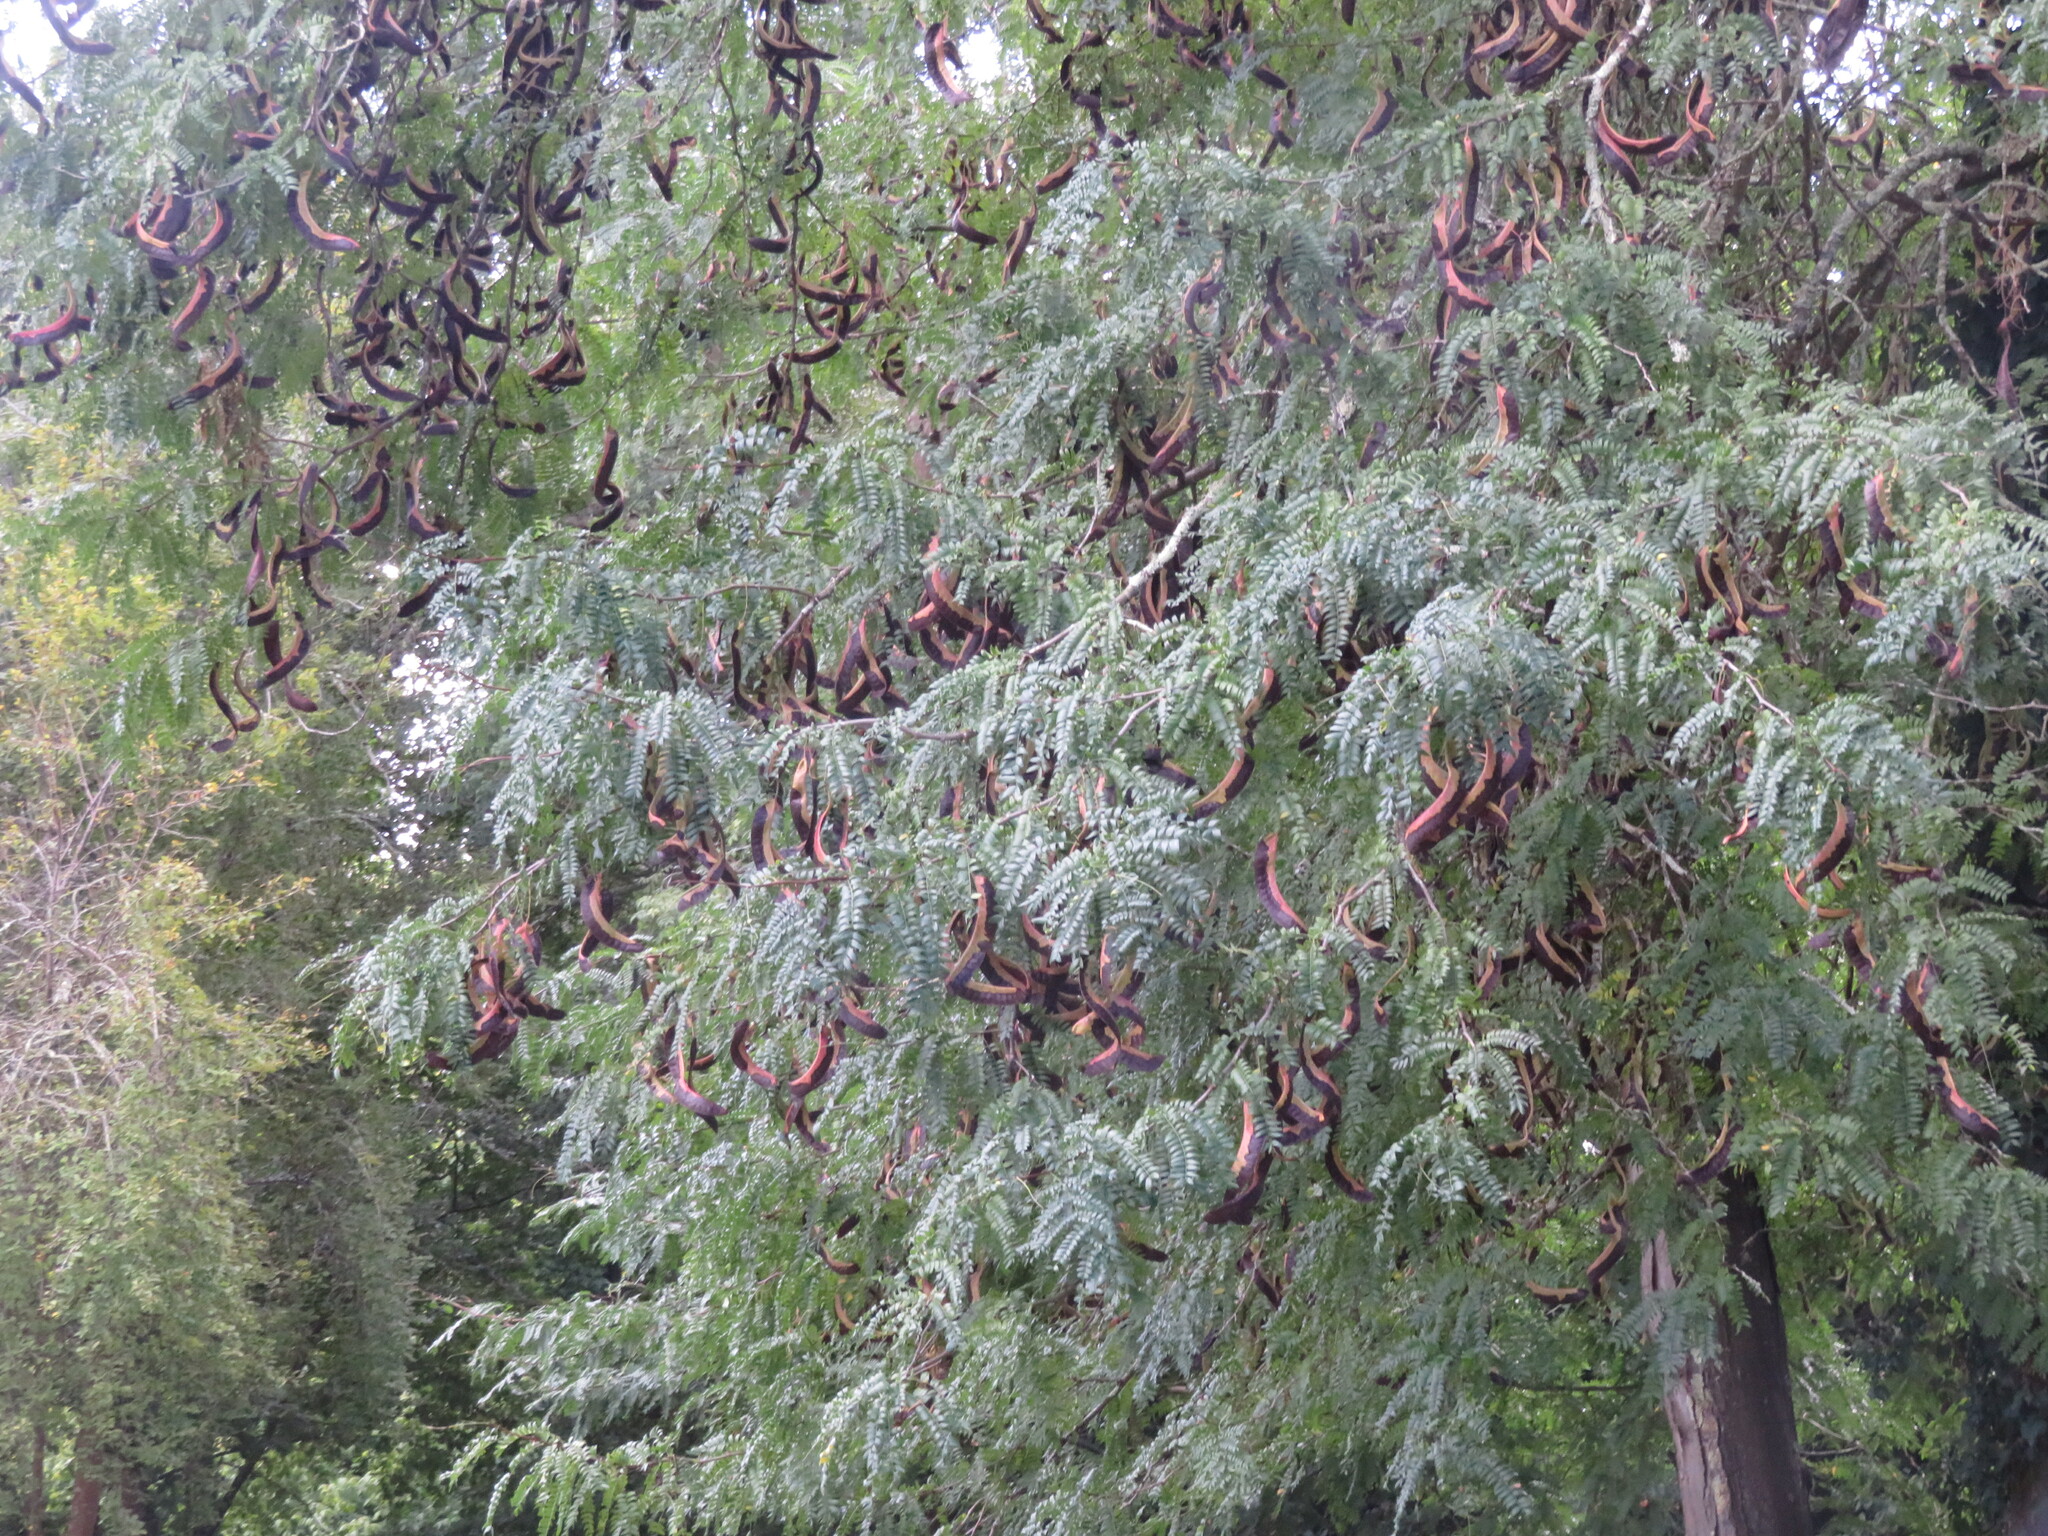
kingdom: Plantae
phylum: Tracheophyta
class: Magnoliopsida
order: Fabales
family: Fabaceae
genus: Gleditsia
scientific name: Gleditsia triacanthos
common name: Common honeylocust
